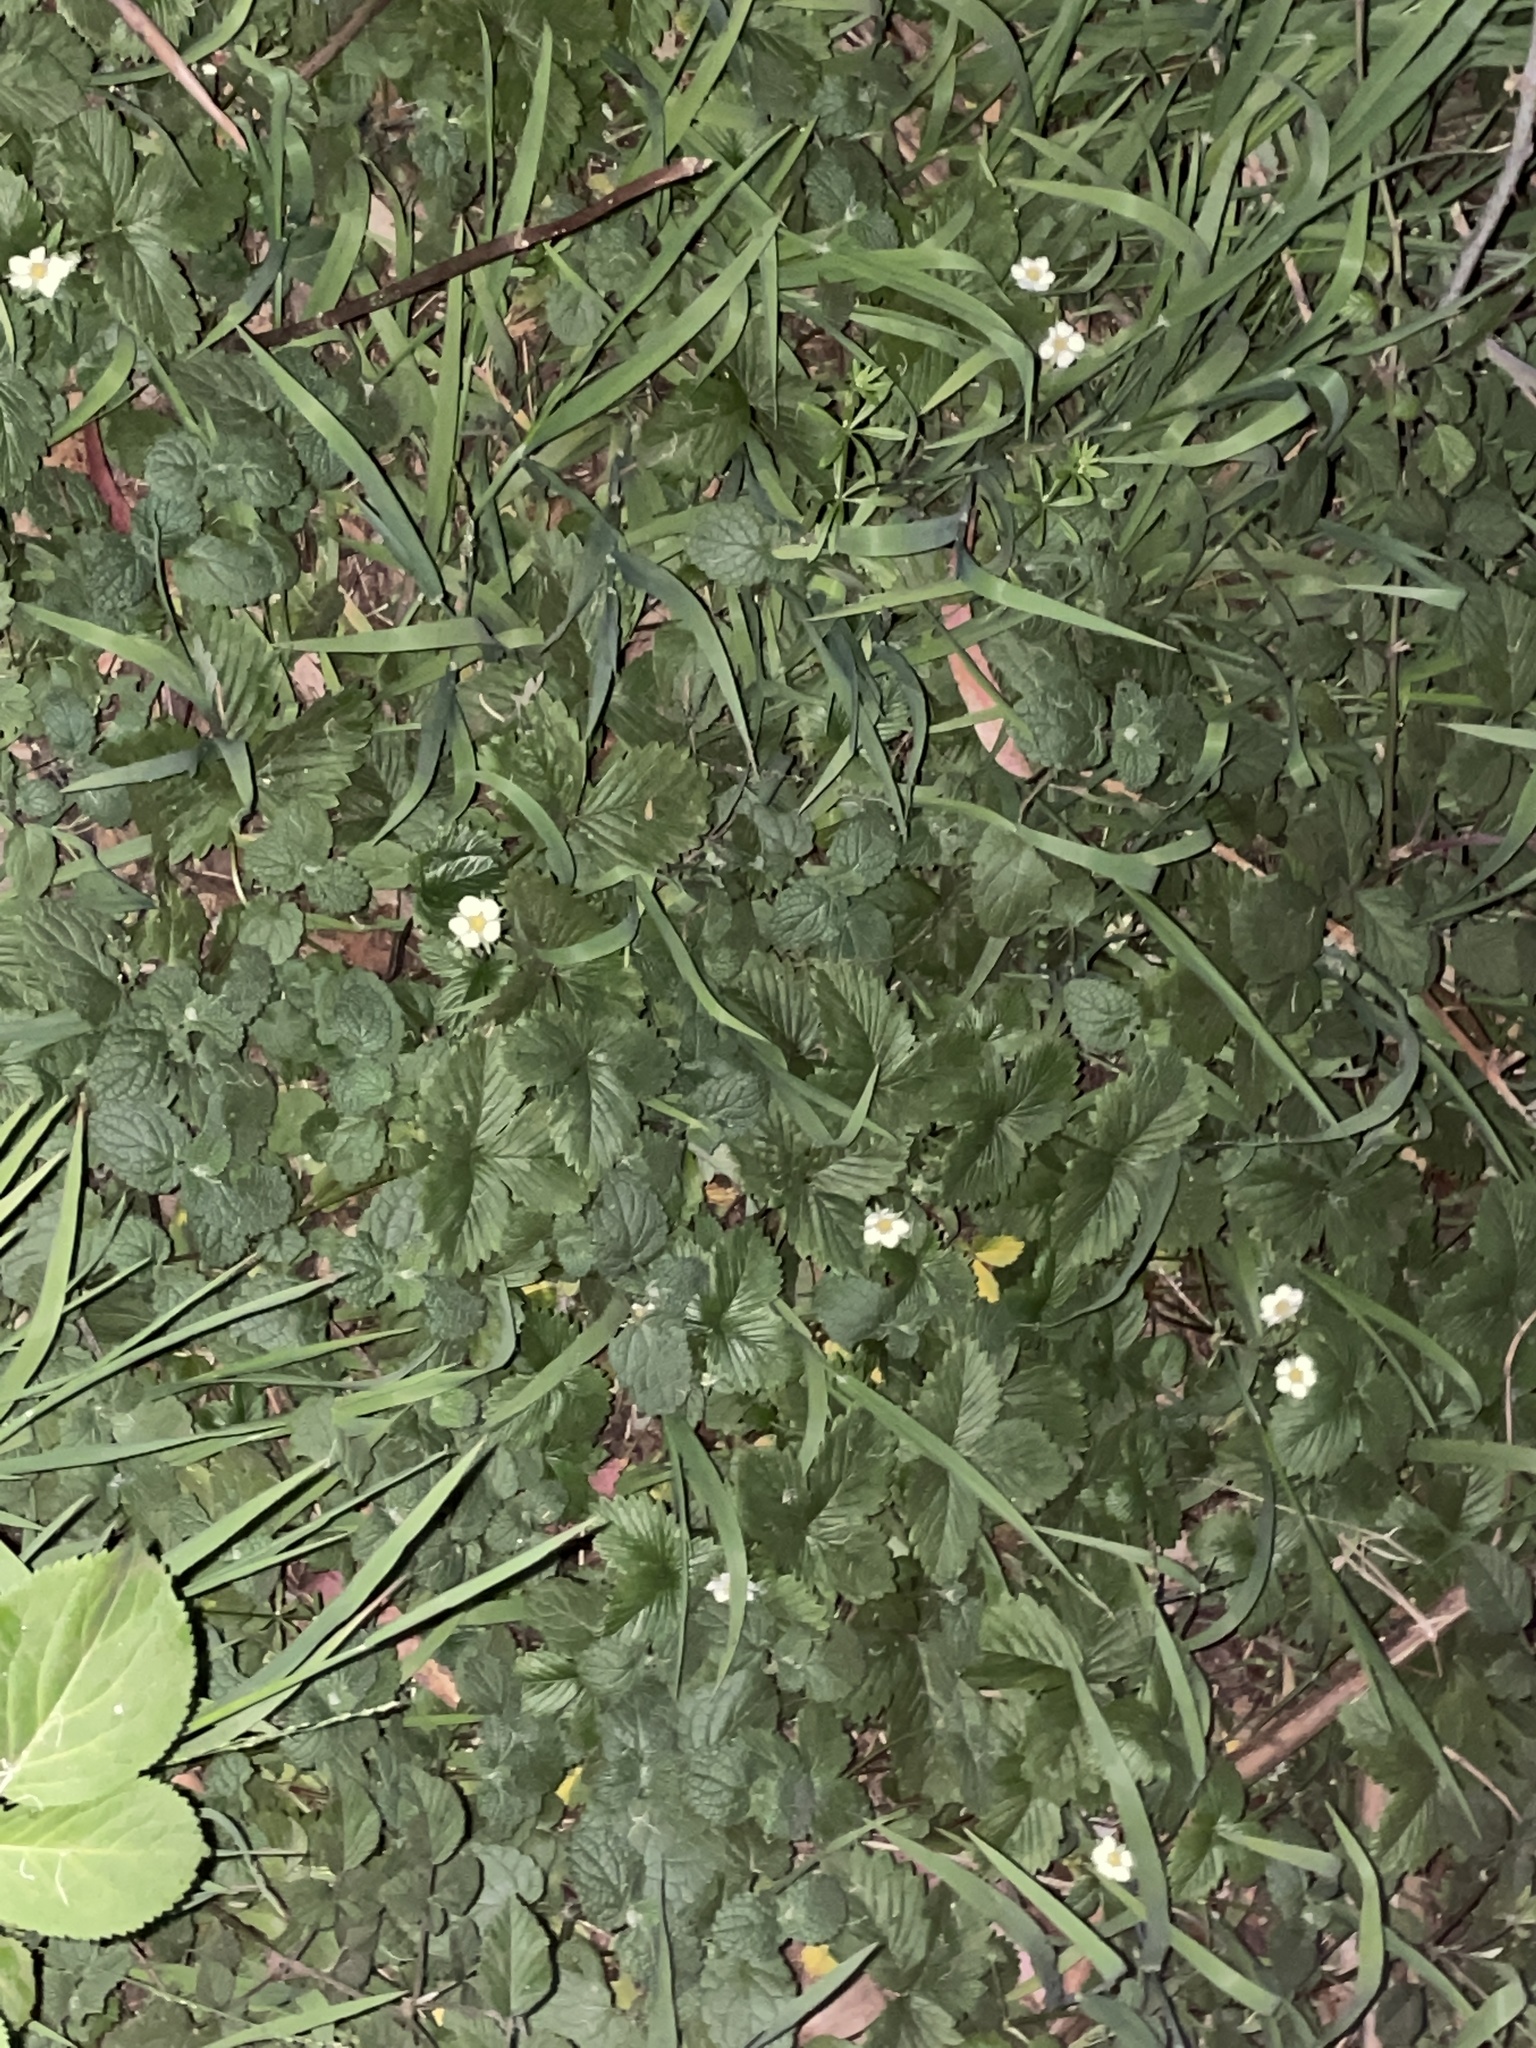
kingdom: Plantae
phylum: Tracheophyta
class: Magnoliopsida
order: Rosales
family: Rosaceae
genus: Fragaria
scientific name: Fragaria vesca
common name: Wild strawberry
